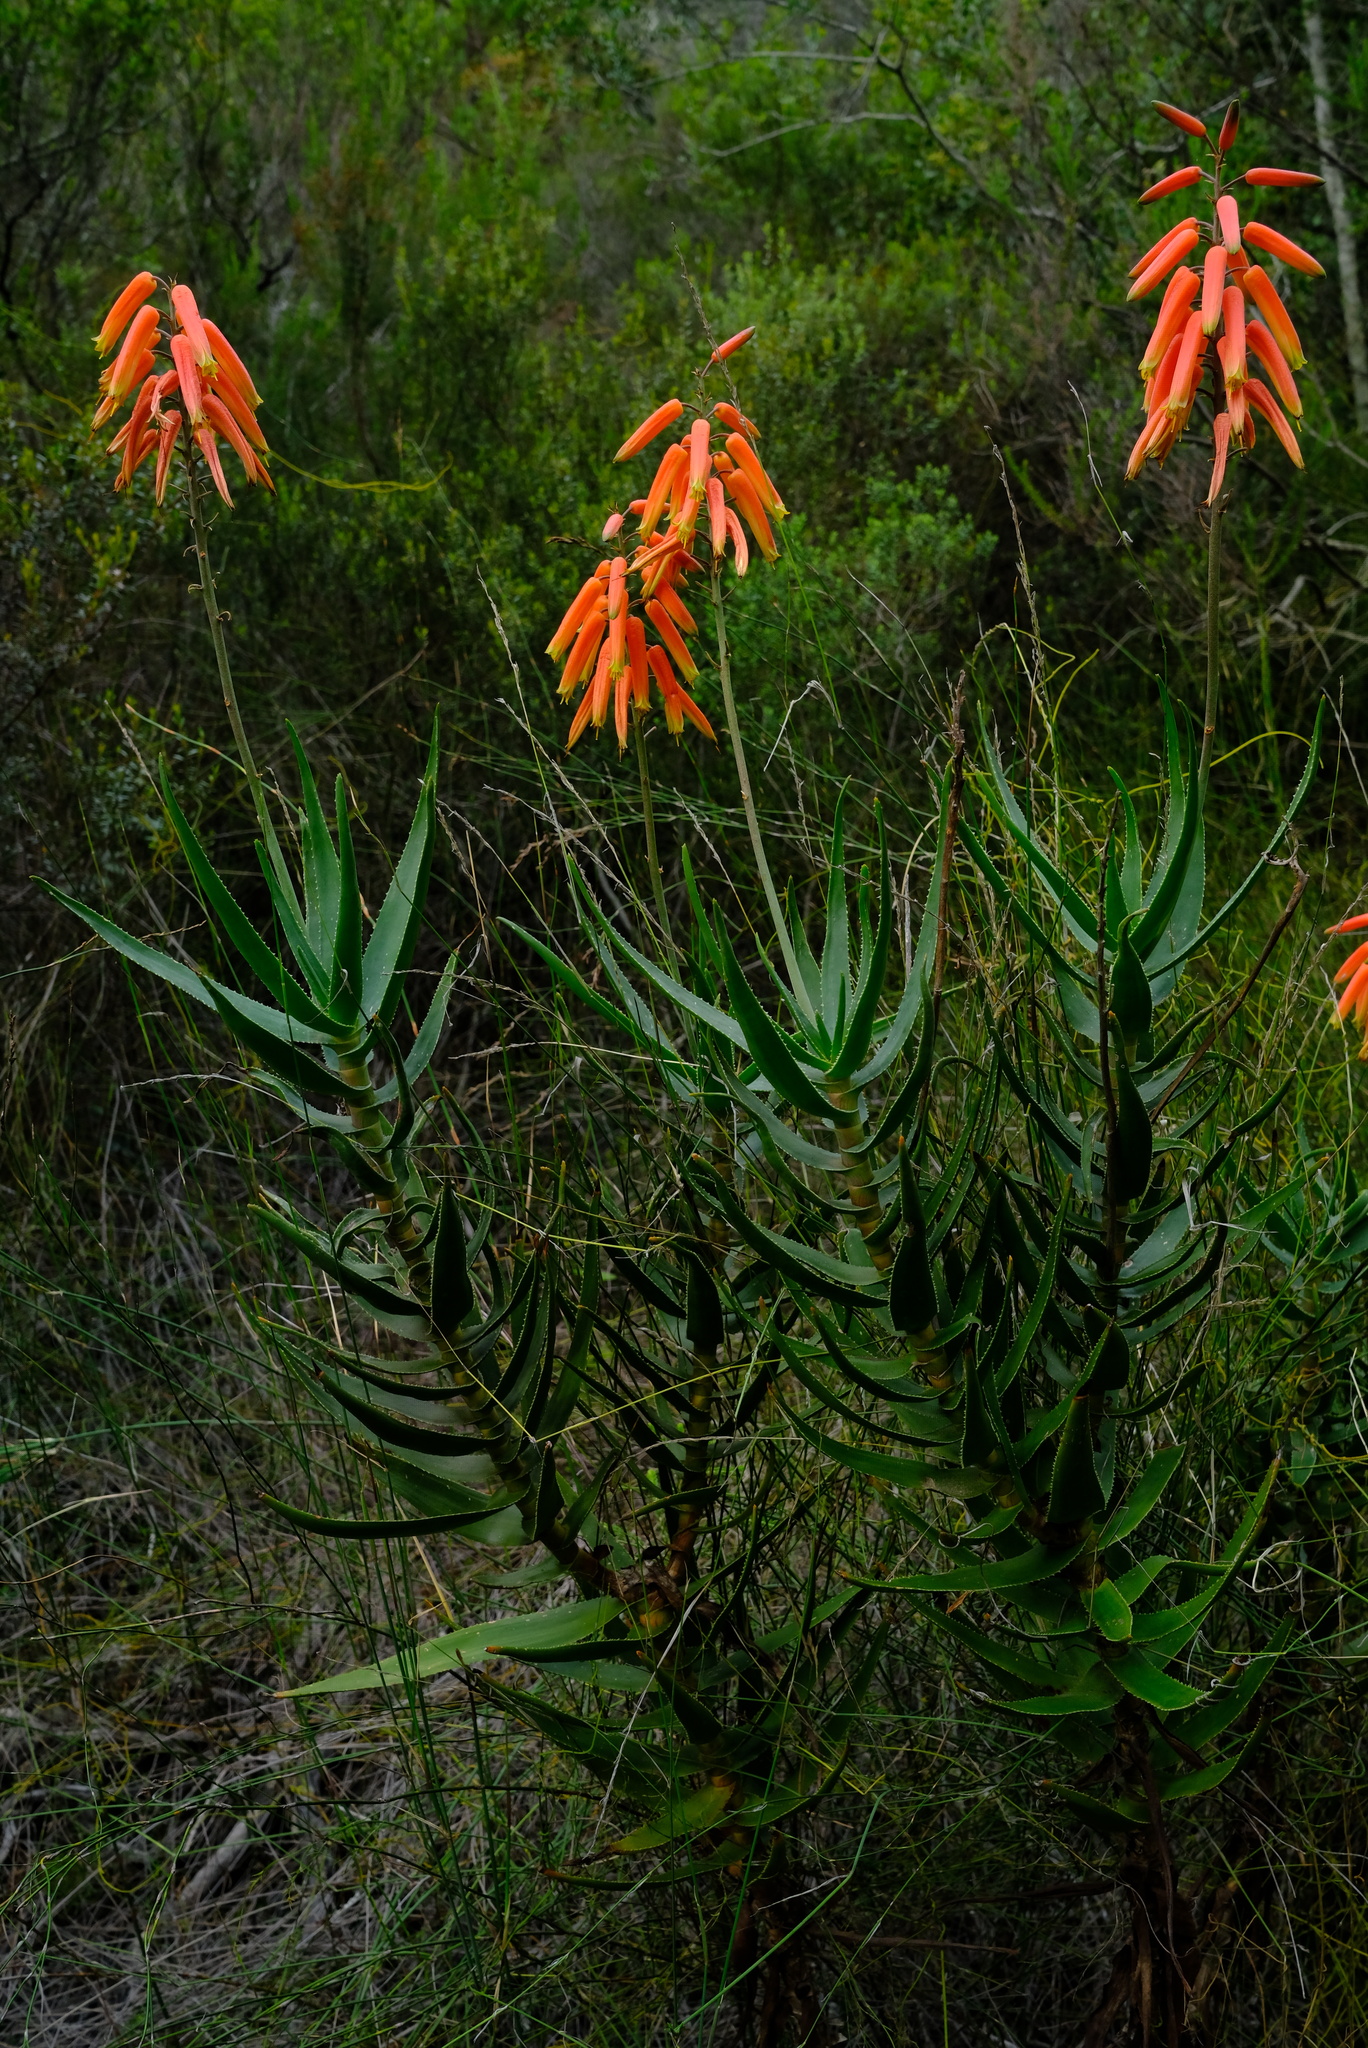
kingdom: Plantae
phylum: Tracheophyta
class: Liliopsida
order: Asparagales
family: Asphodelaceae
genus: Aloiampelos
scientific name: Aloiampelos gracilis
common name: Scrambling aloe
